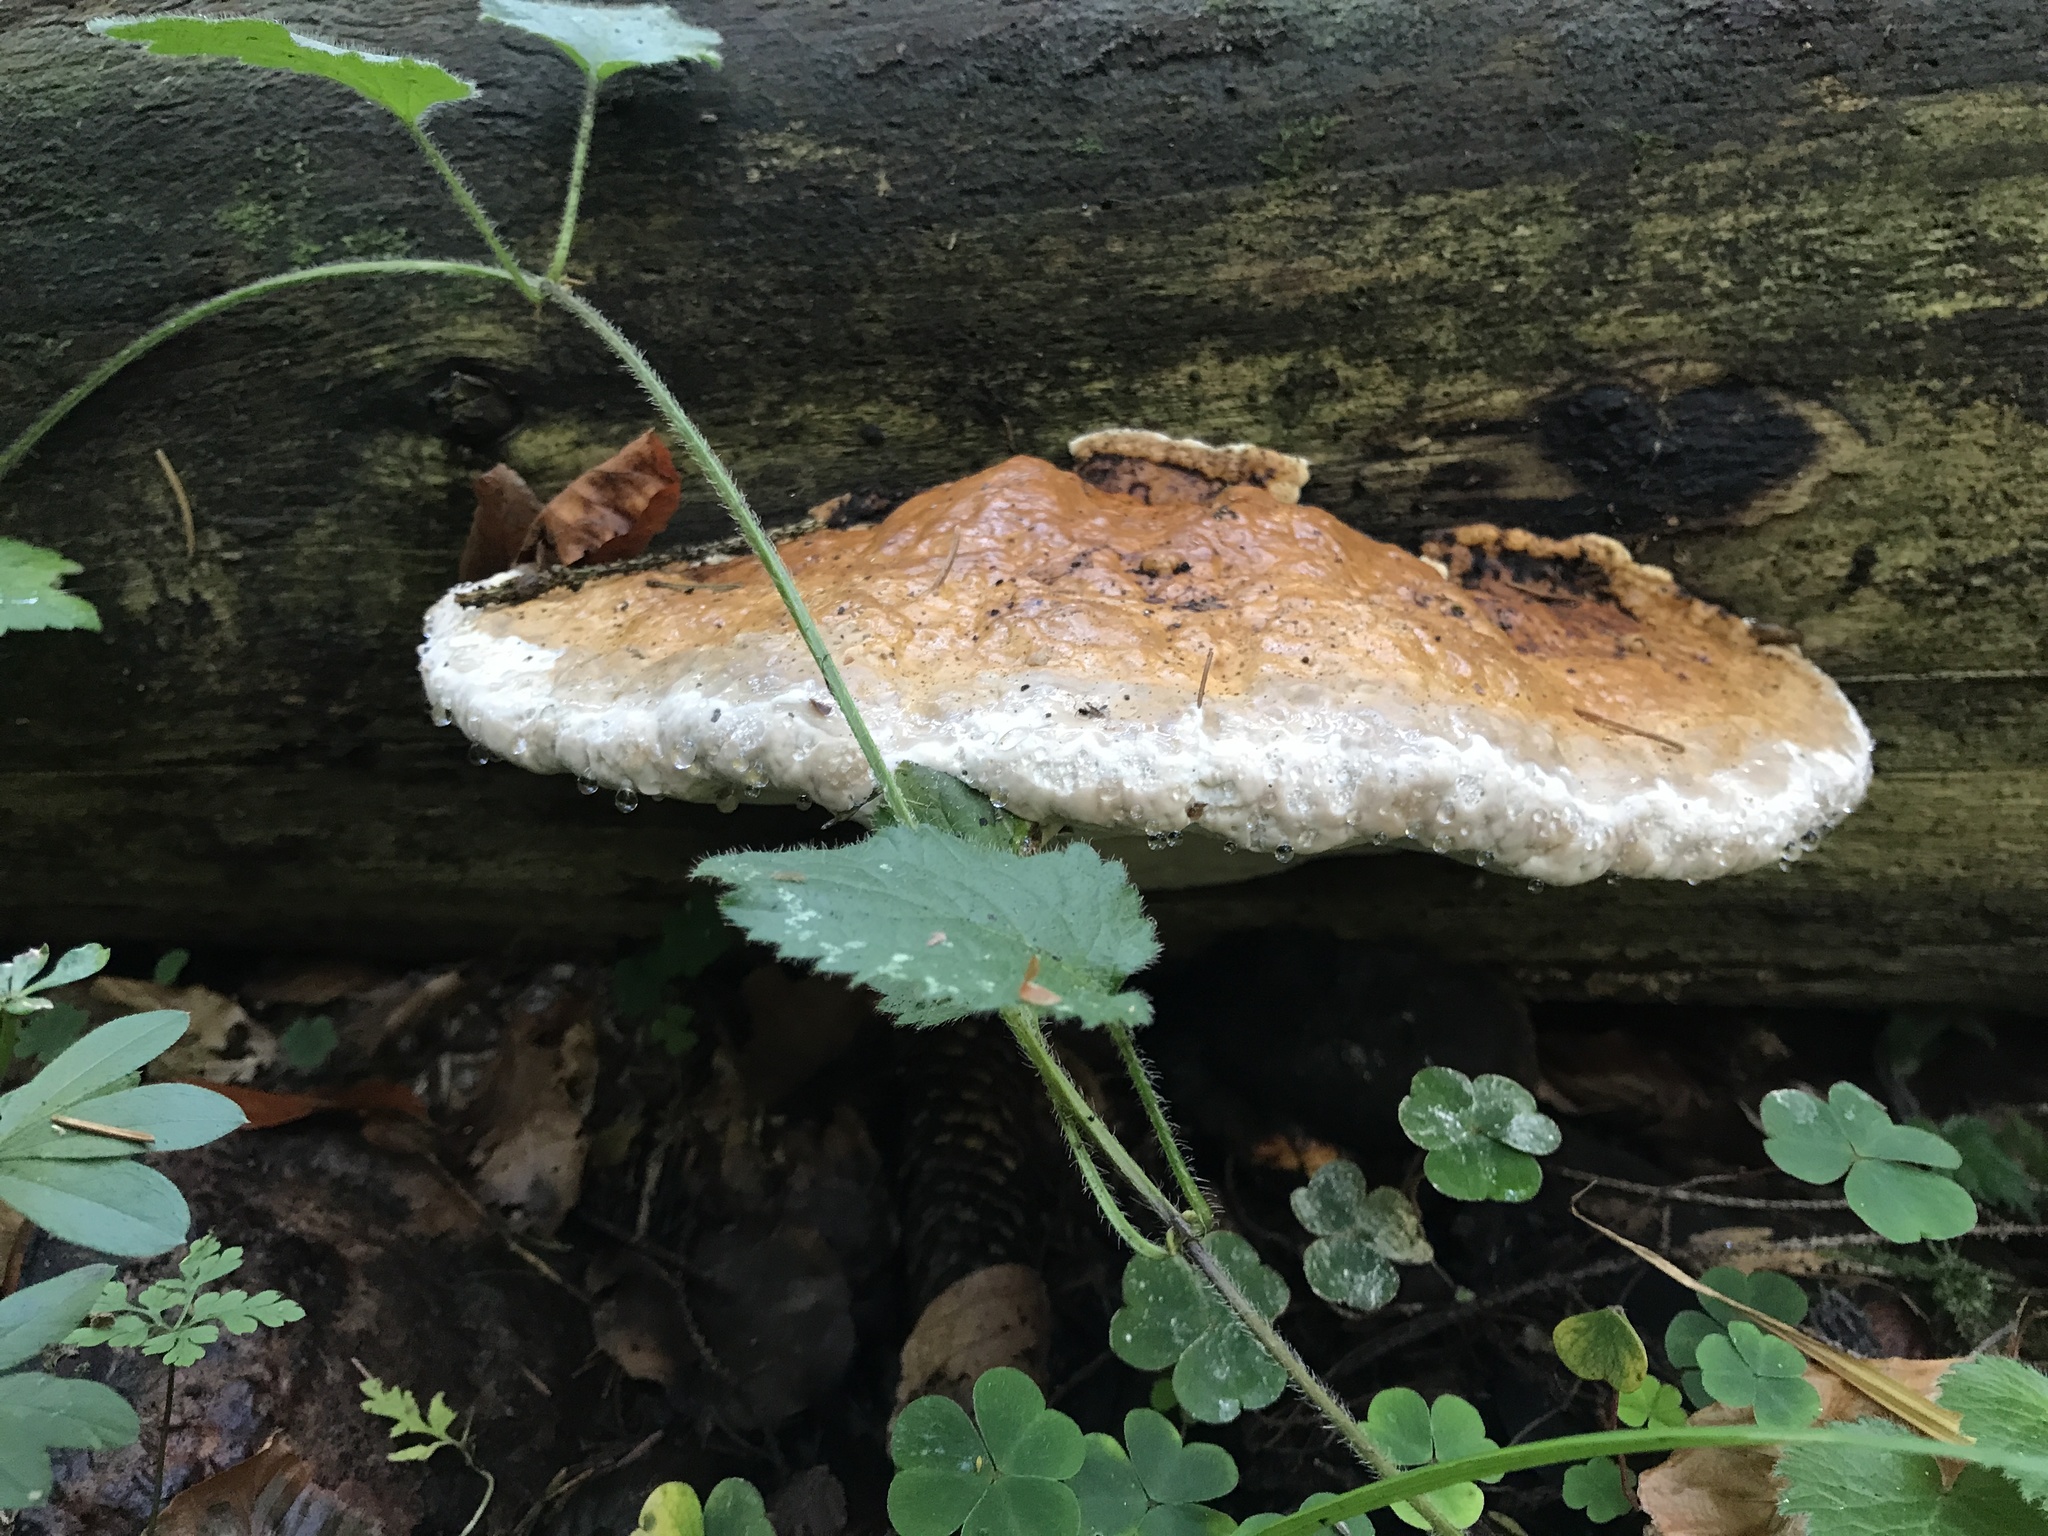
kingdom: Fungi
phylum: Basidiomycota
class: Agaricomycetes
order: Polyporales
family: Fomitopsidaceae
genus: Fomitopsis
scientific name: Fomitopsis pinicola
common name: Red-belted bracket
